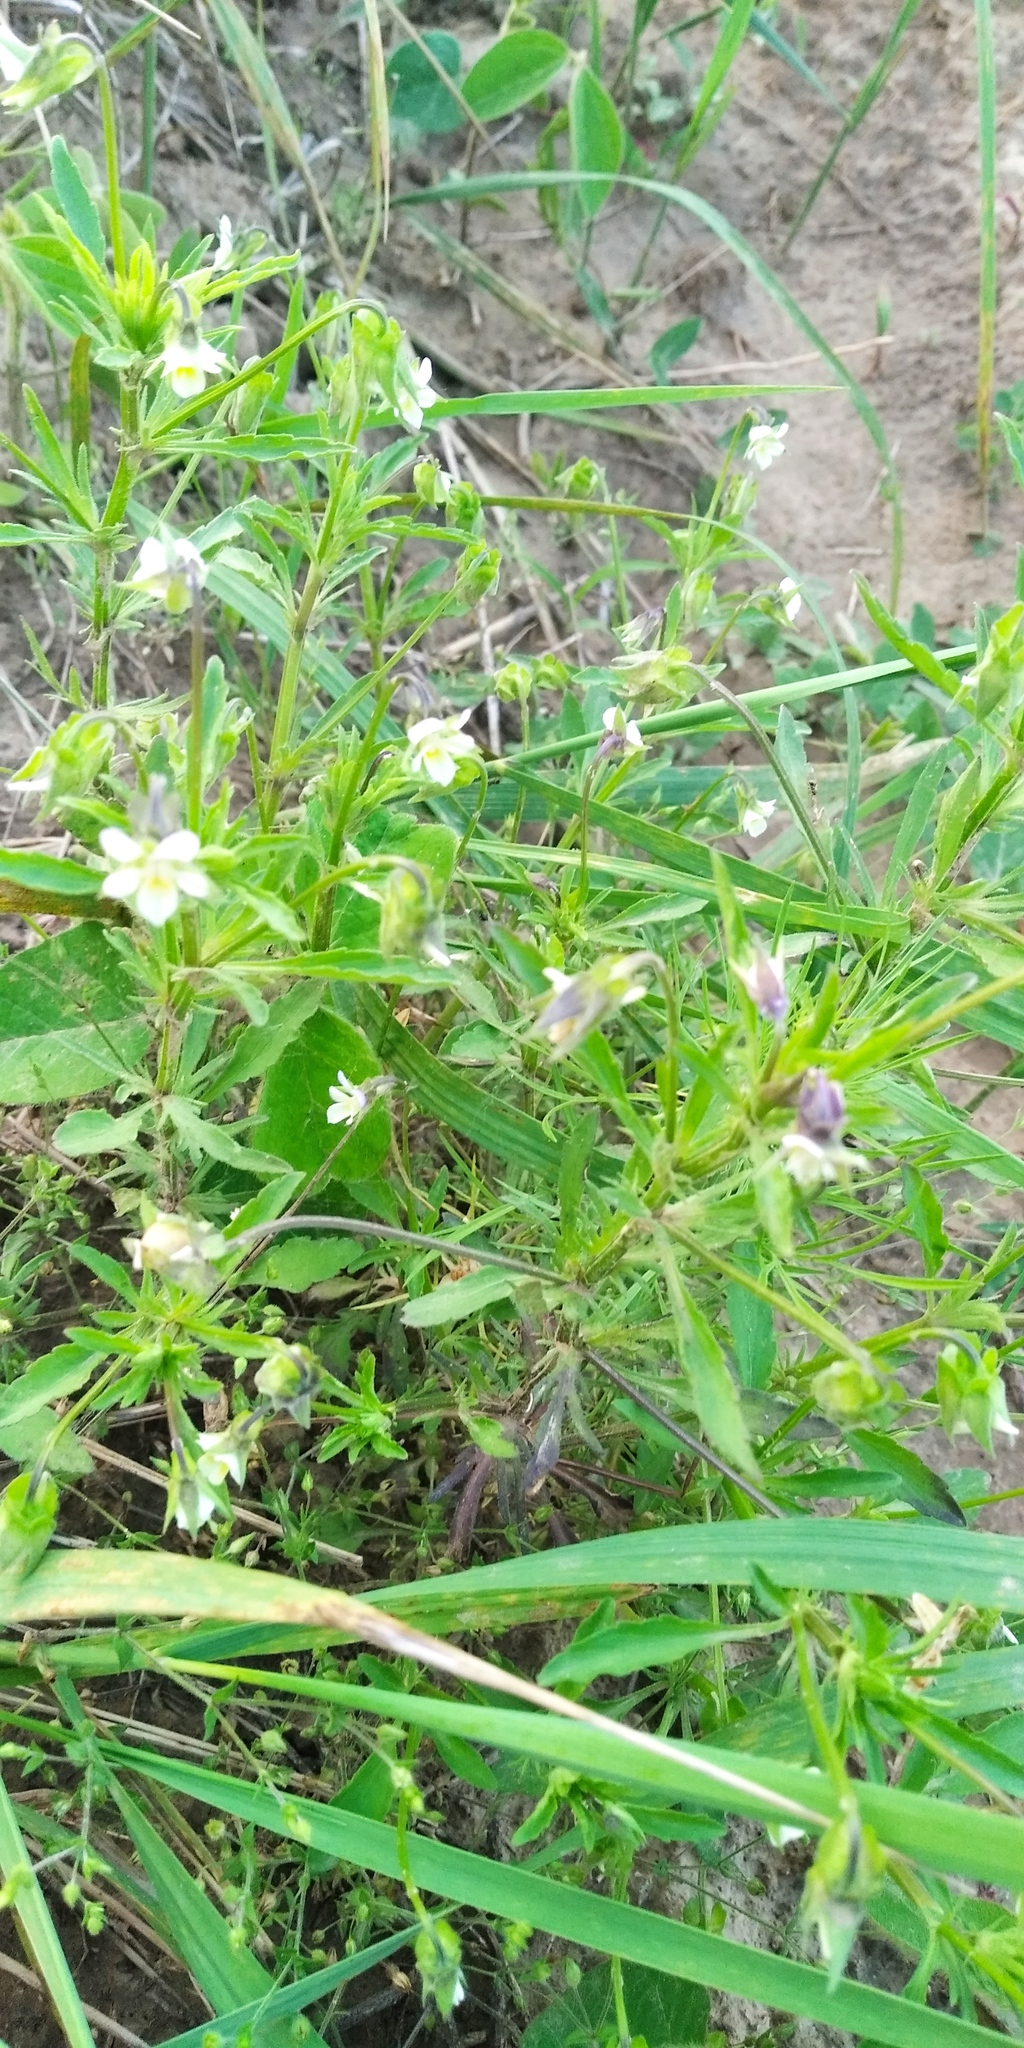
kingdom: Plantae
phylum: Tracheophyta
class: Magnoliopsida
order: Malpighiales
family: Violaceae
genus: Viola
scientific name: Viola arvensis
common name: Field pansy
